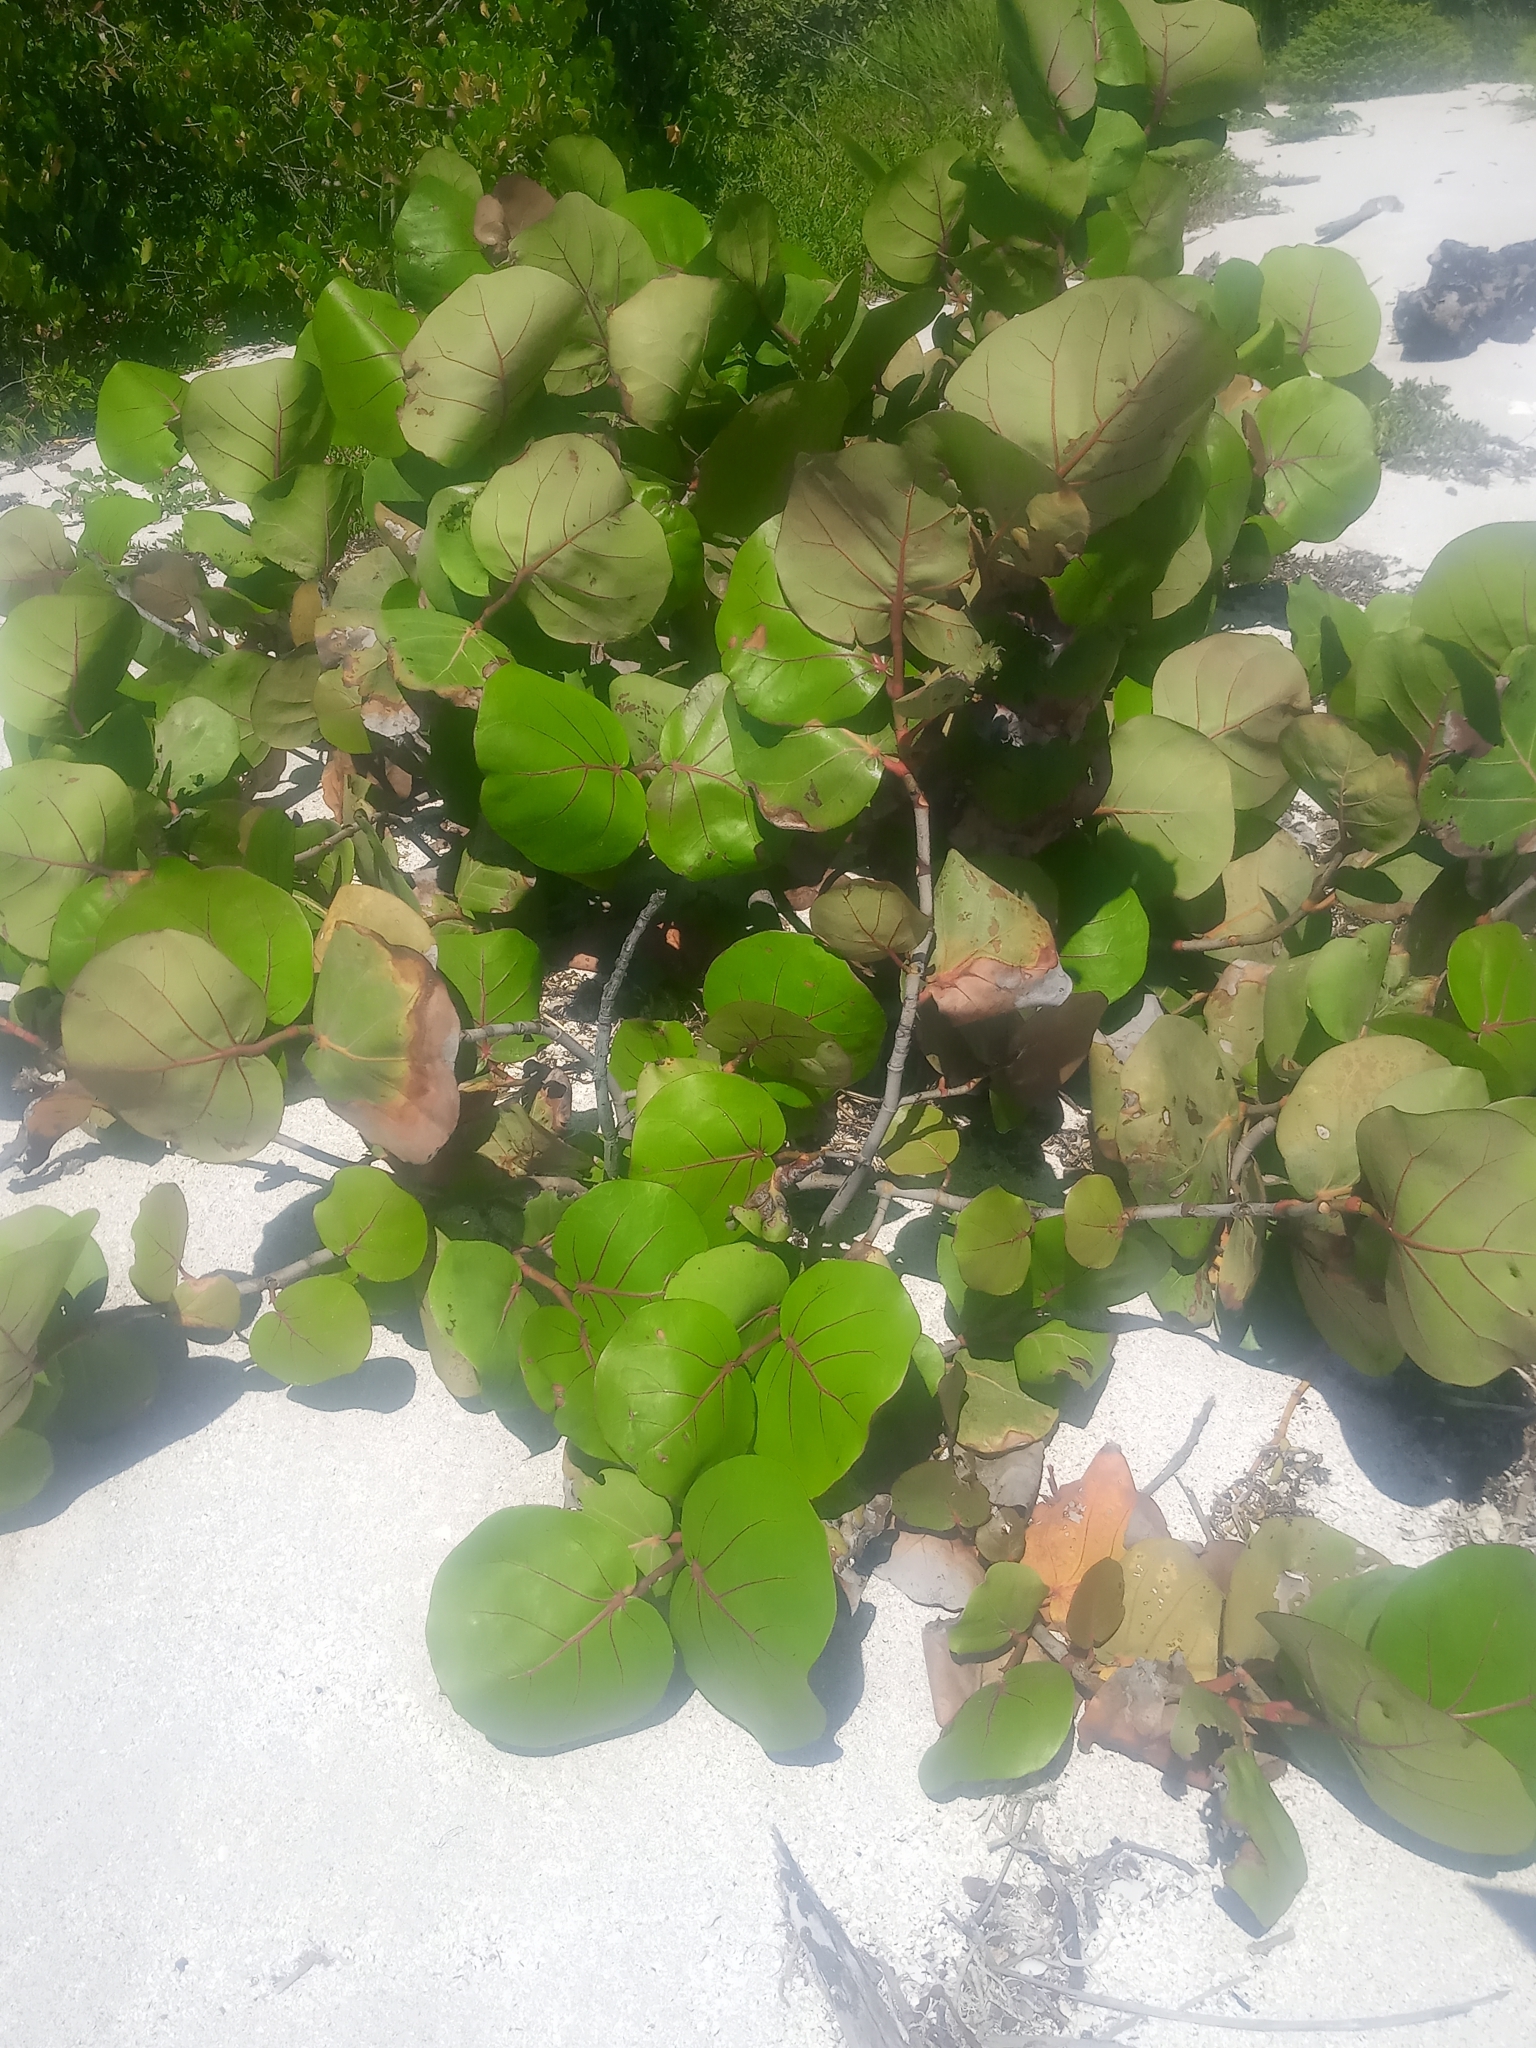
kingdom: Plantae
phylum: Tracheophyta
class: Magnoliopsida
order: Caryophyllales
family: Polygonaceae
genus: Coccoloba
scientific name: Coccoloba uvifera
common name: Seagrape
